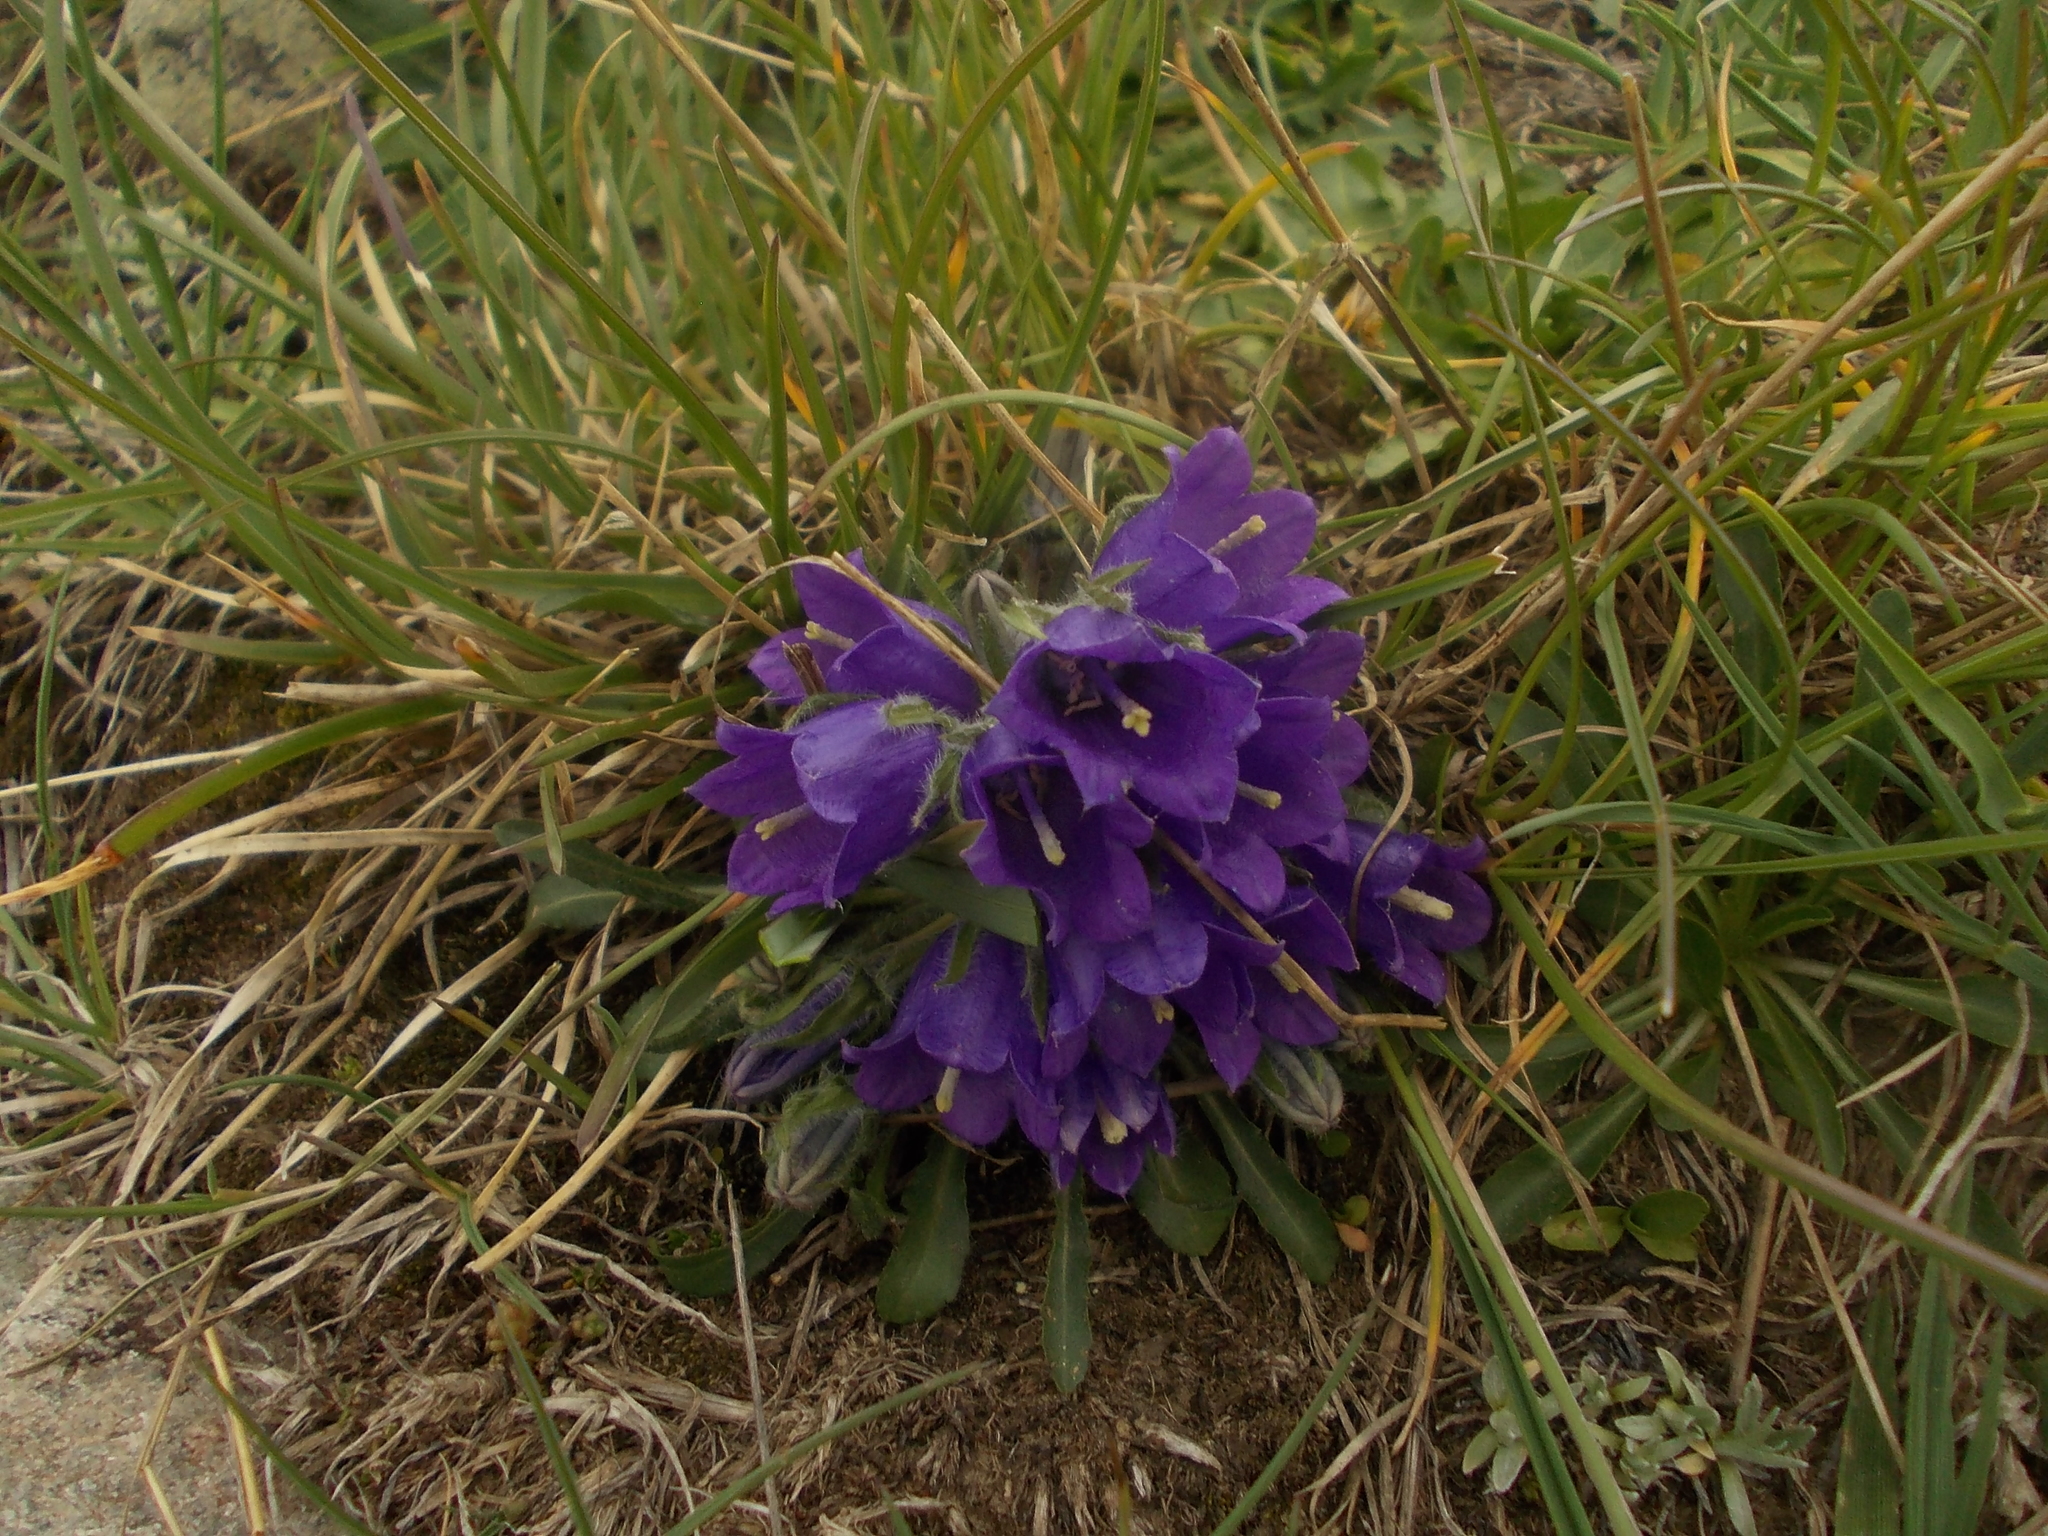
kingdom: Plantae
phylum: Tracheophyta
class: Magnoliopsida
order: Asterales
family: Campanulaceae
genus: Campanula
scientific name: Campanula orbelica
